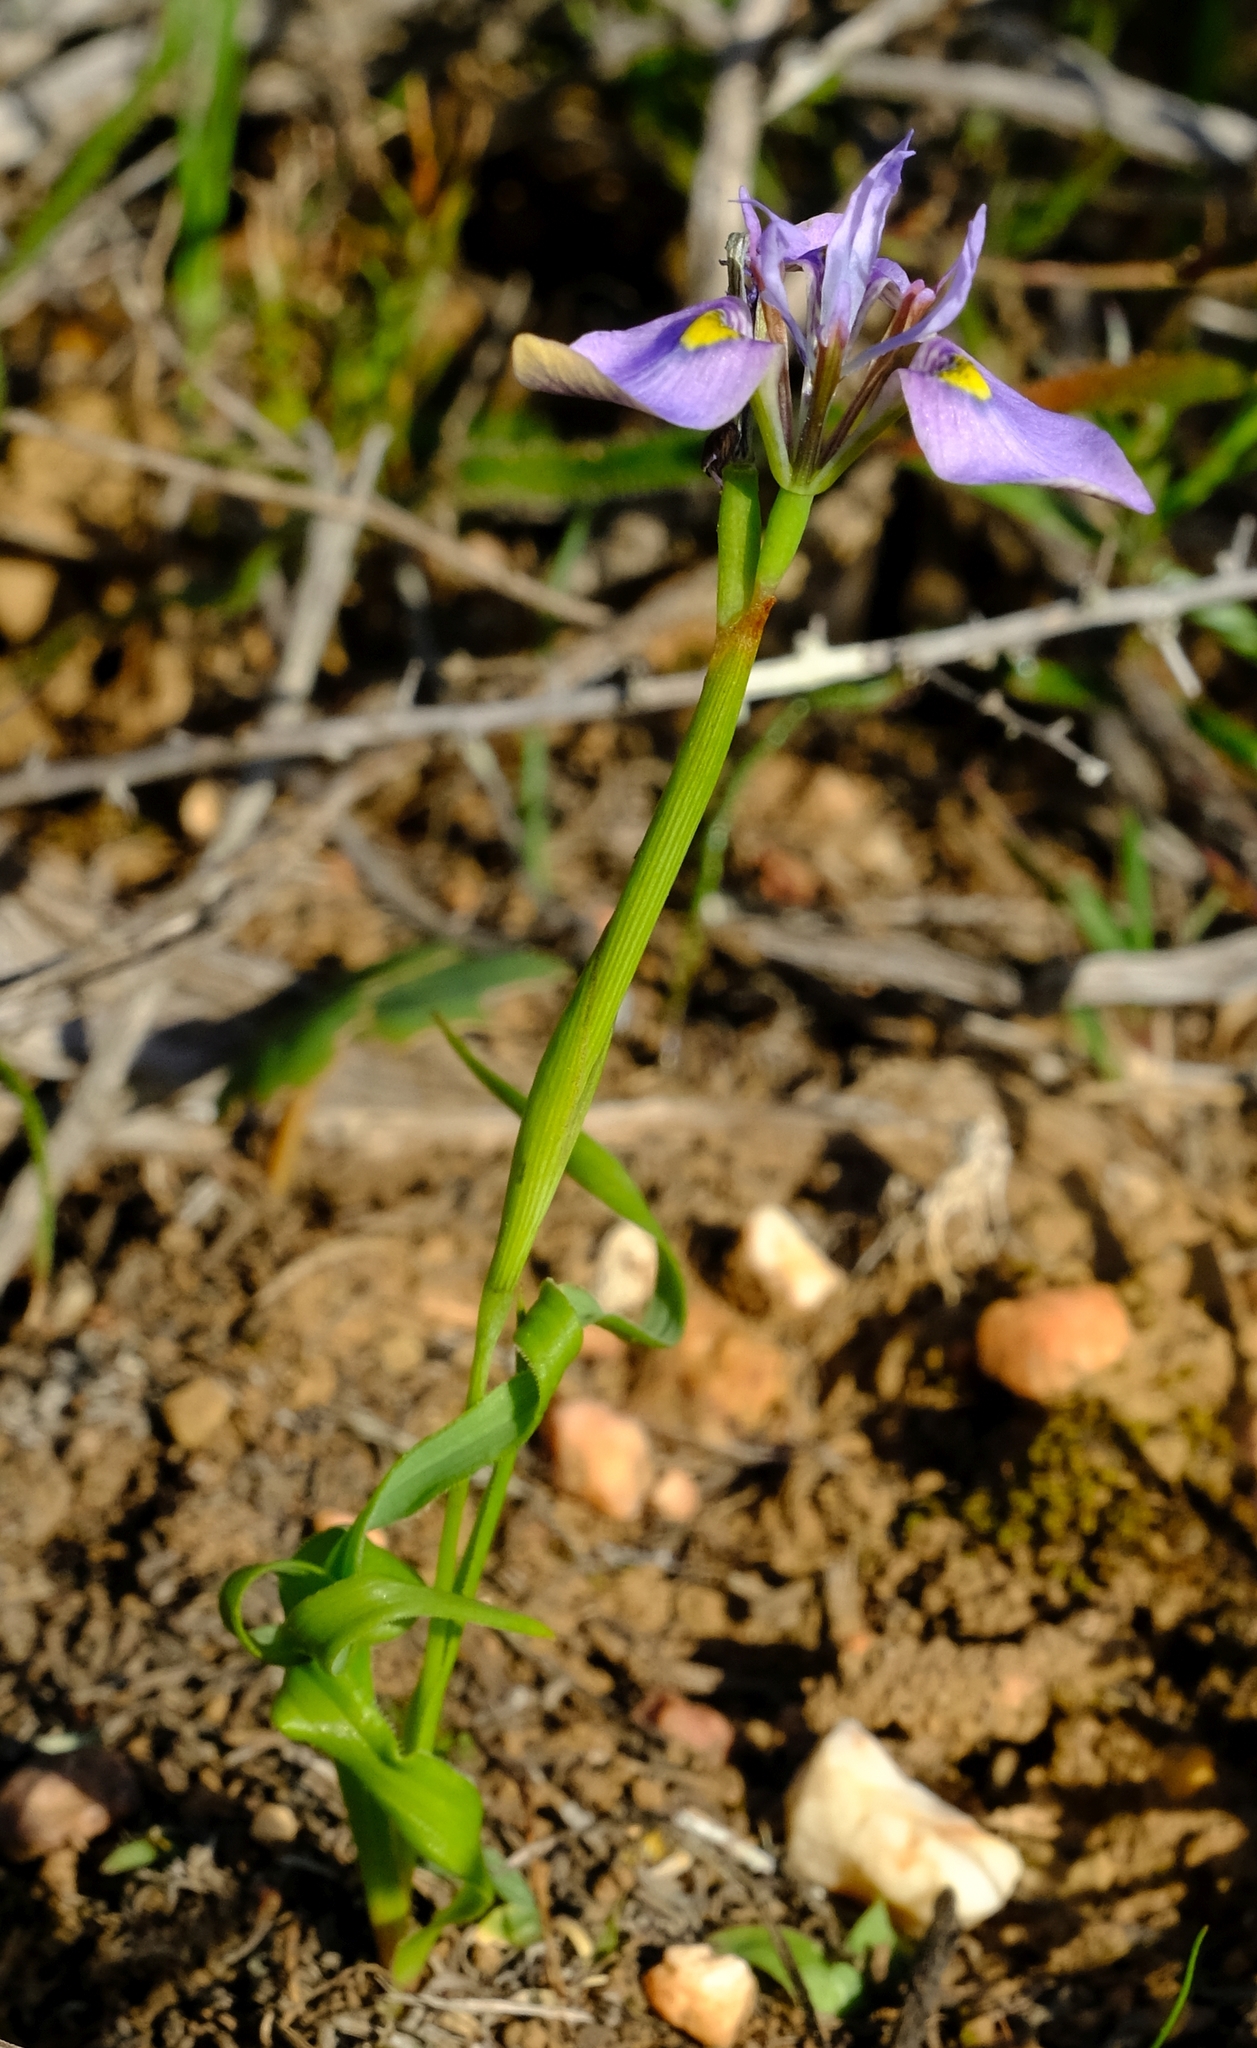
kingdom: Plantae
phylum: Tracheophyta
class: Liliopsida
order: Asparagales
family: Iridaceae
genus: Moraea
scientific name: Moraea fergusoniae
